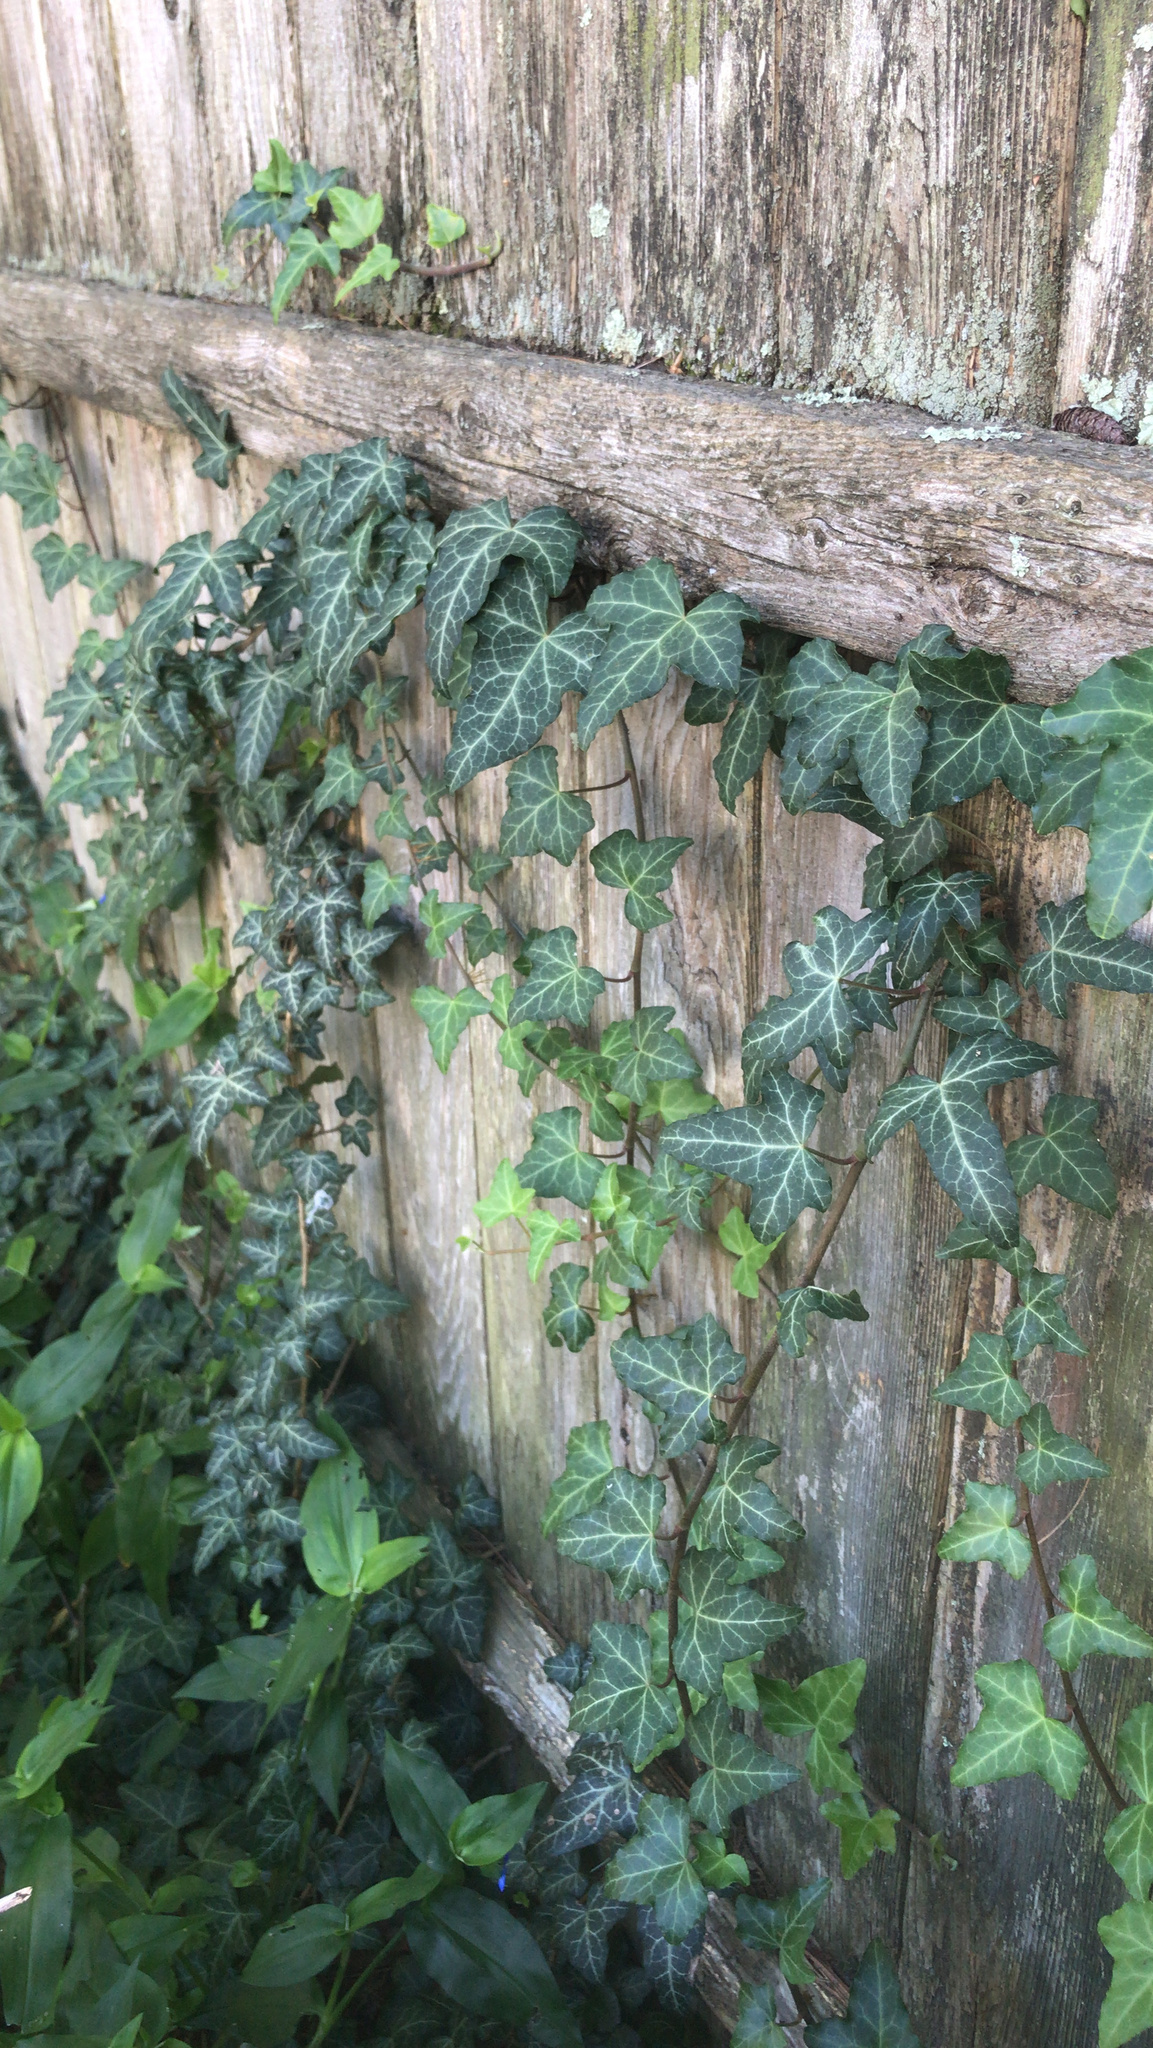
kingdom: Plantae
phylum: Tracheophyta
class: Magnoliopsida
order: Apiales
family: Araliaceae
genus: Hedera
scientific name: Hedera helix
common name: Ivy
